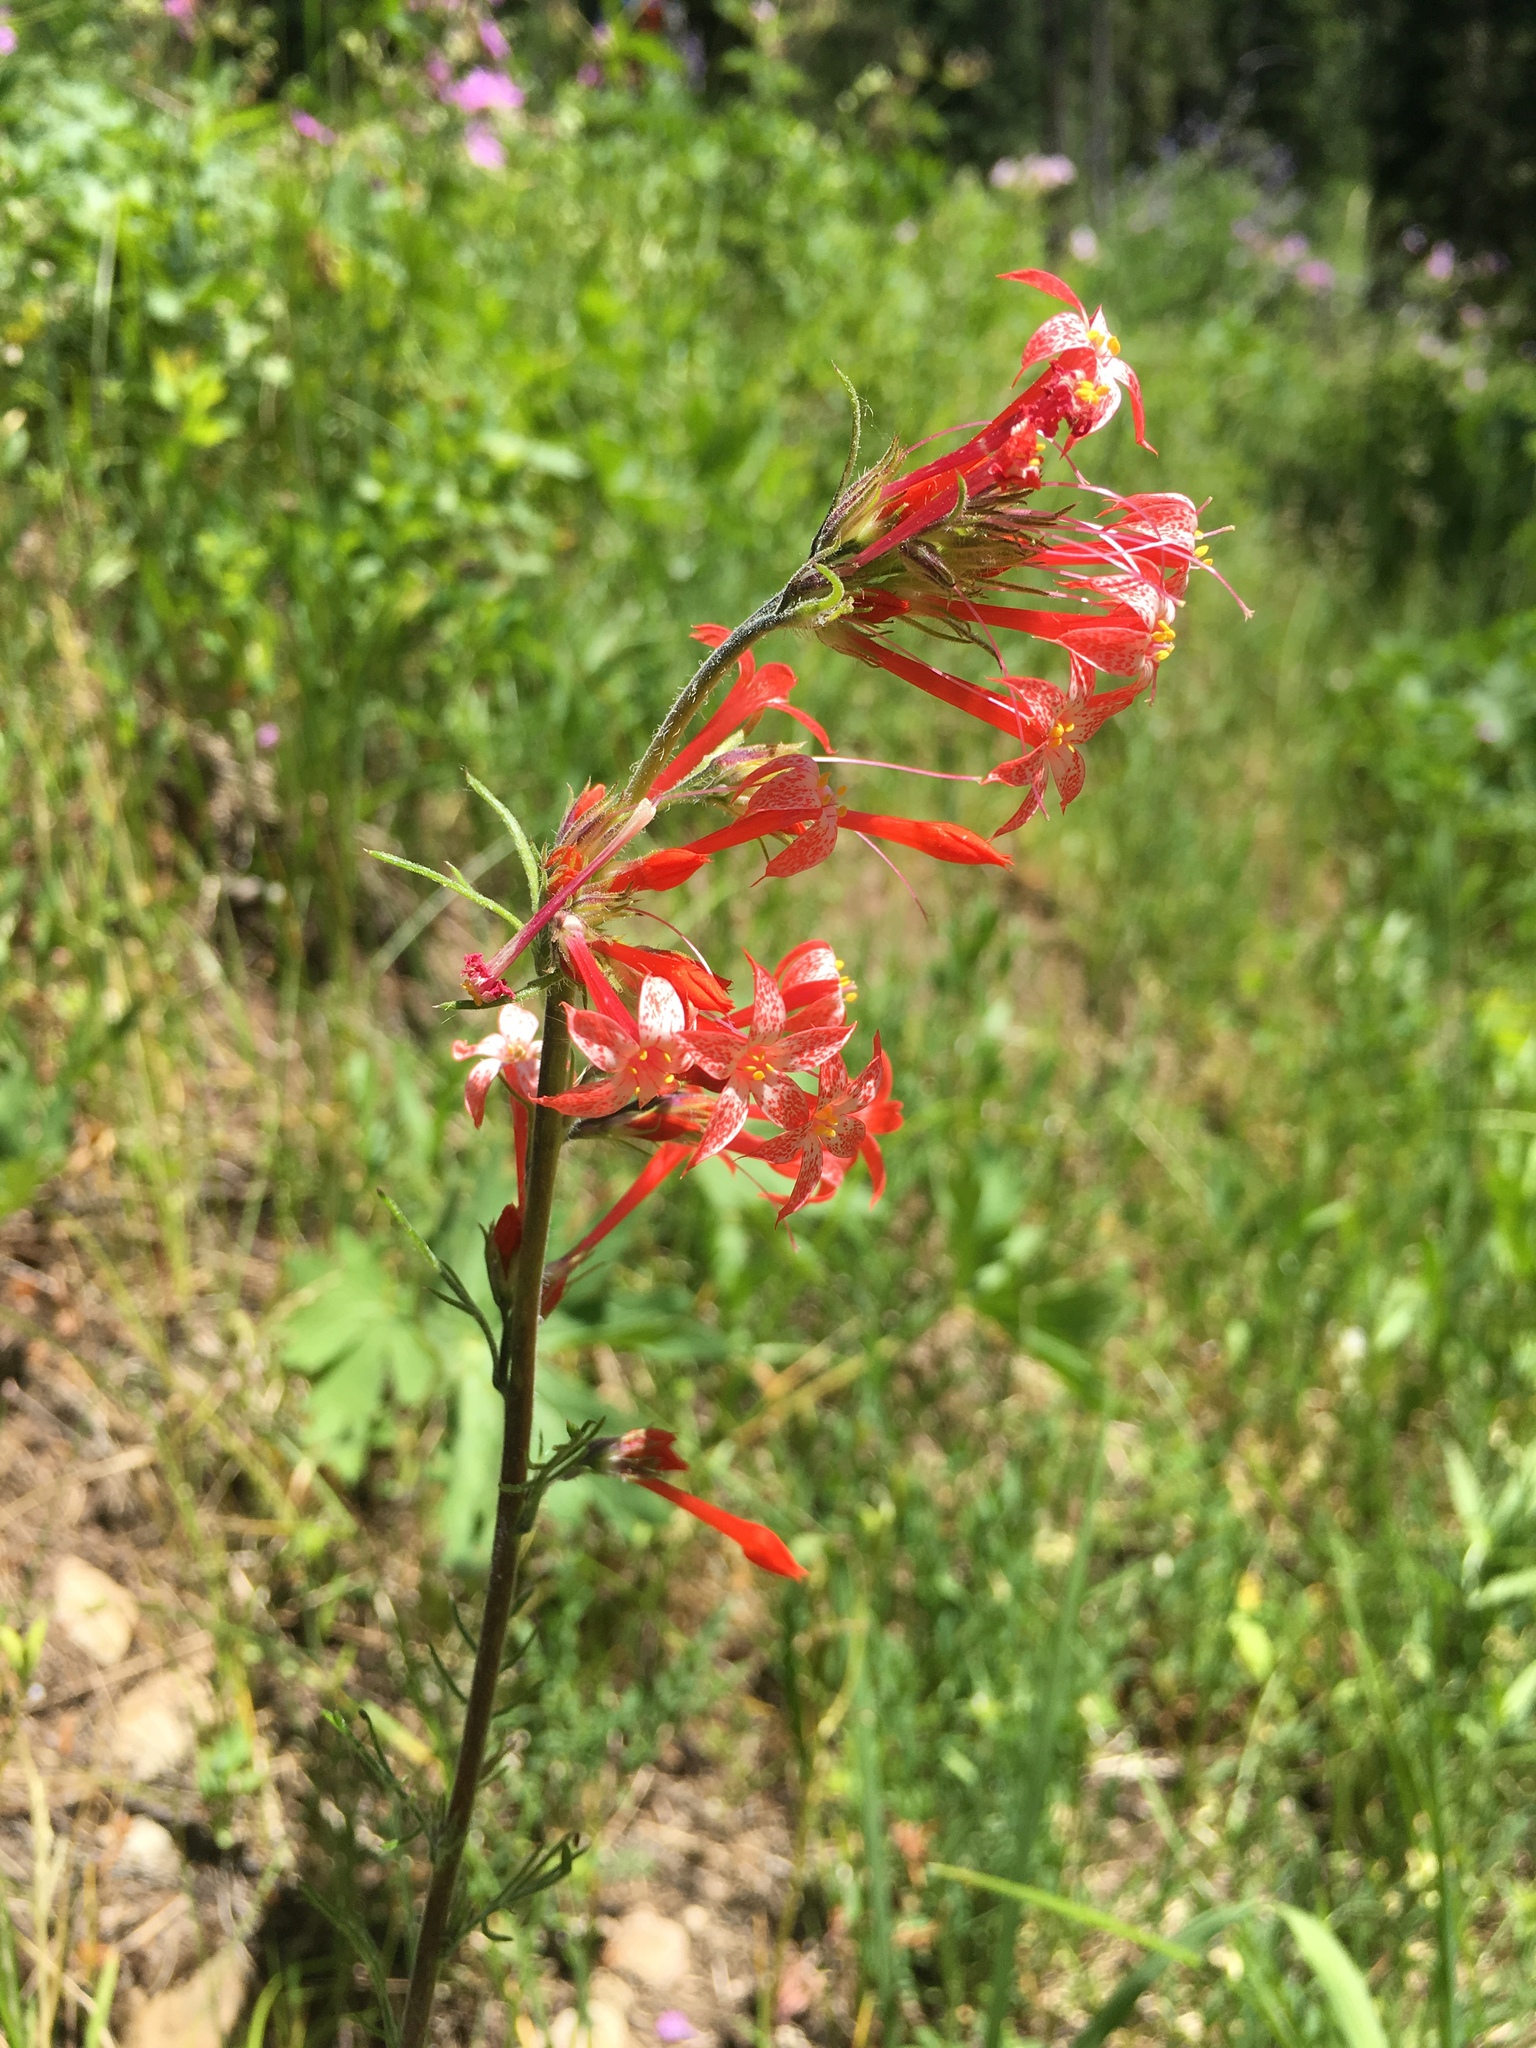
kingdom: Plantae
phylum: Tracheophyta
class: Magnoliopsida
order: Ericales
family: Polemoniaceae
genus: Ipomopsis
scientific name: Ipomopsis aggregata
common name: Scarlet gilia
